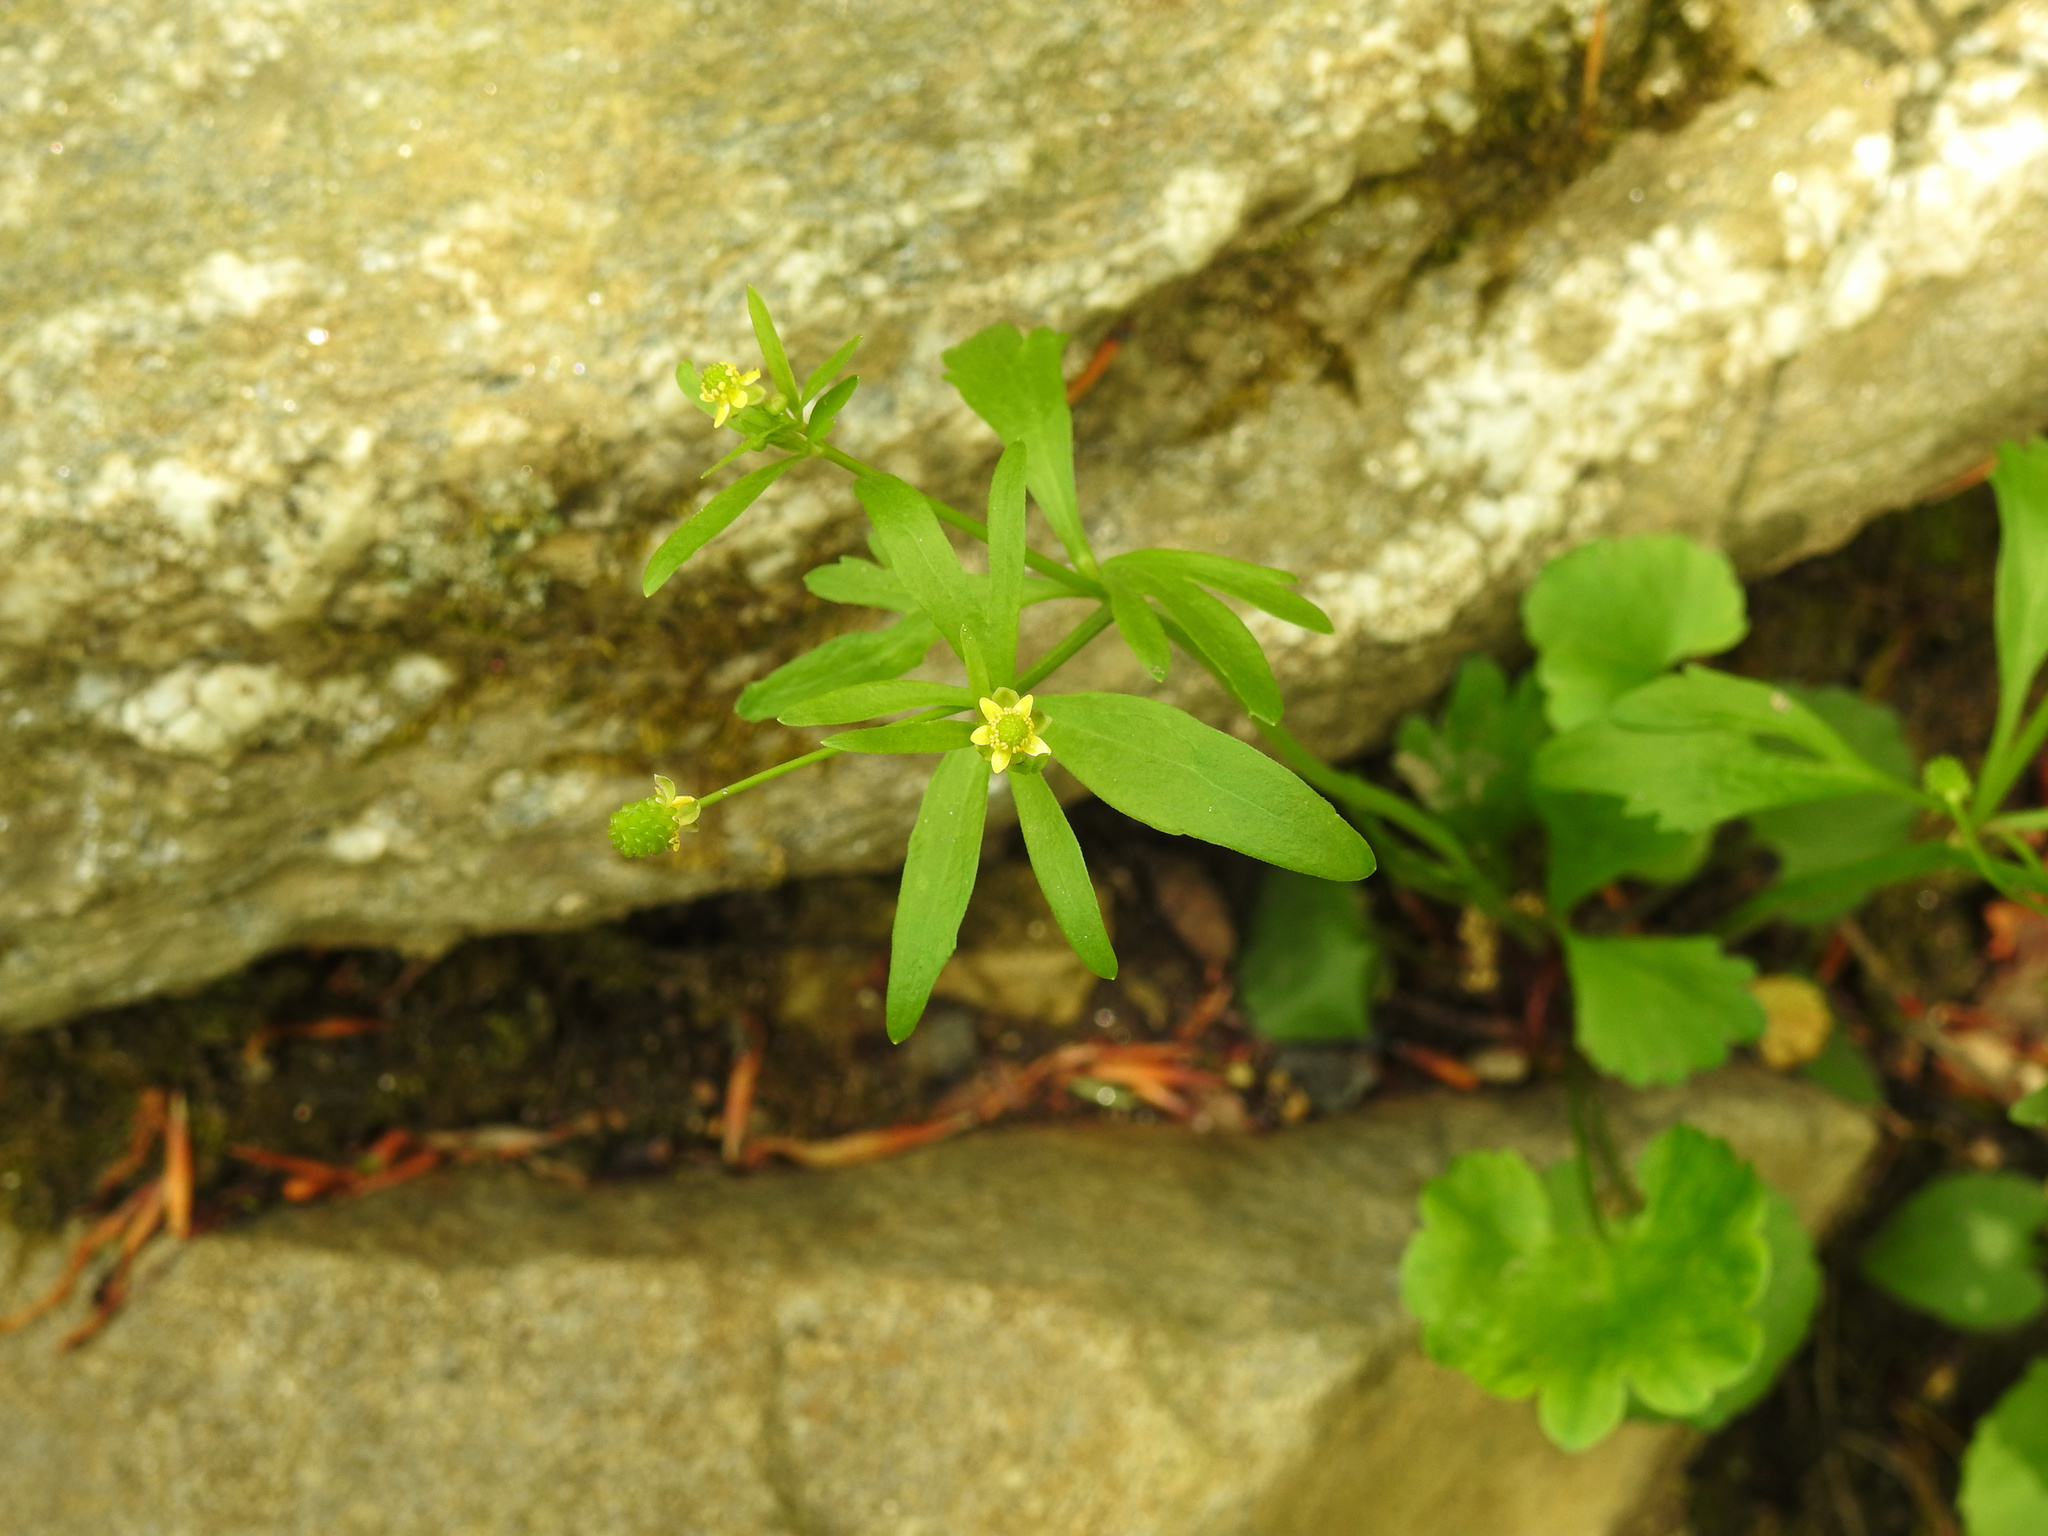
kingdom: Plantae
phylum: Tracheophyta
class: Magnoliopsida
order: Ranunculales
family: Ranunculaceae
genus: Ranunculus
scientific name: Ranunculus abortivus
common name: Early wood buttercup
